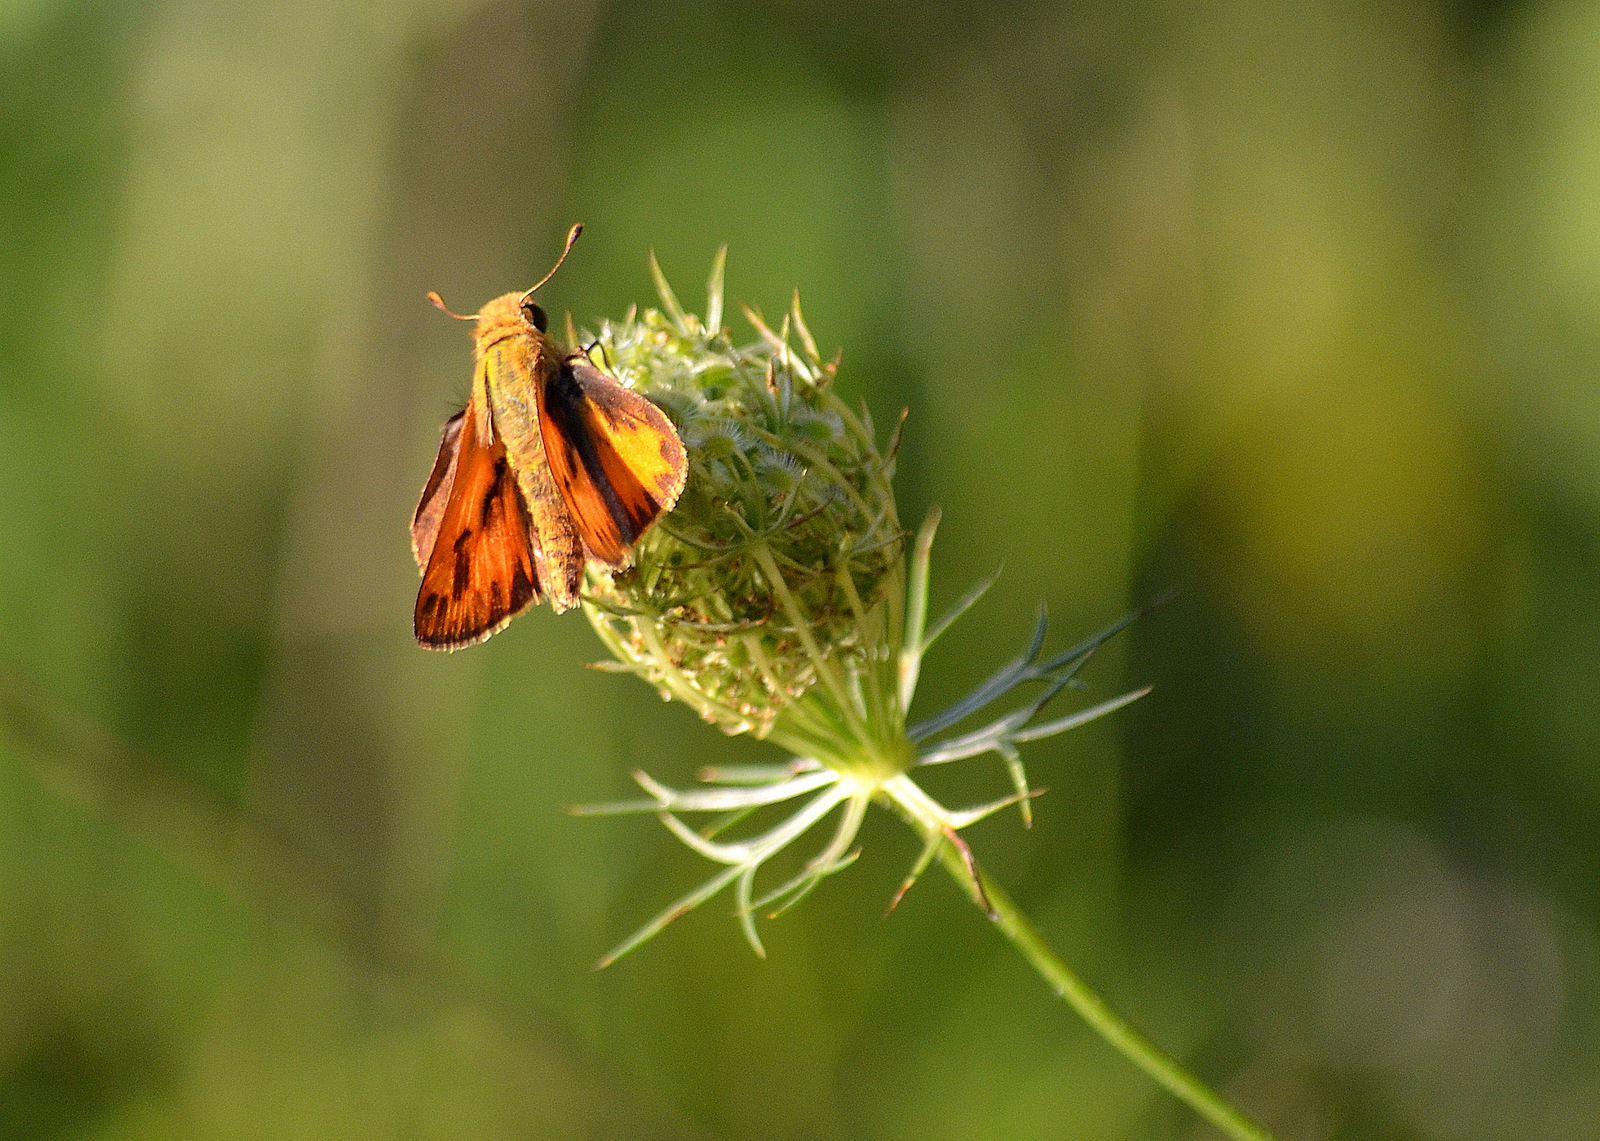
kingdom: Animalia
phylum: Arthropoda
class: Insecta
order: Lepidoptera
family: Hesperiidae
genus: Hylephila
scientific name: Hylephila phyleus
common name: Fiery skipper
